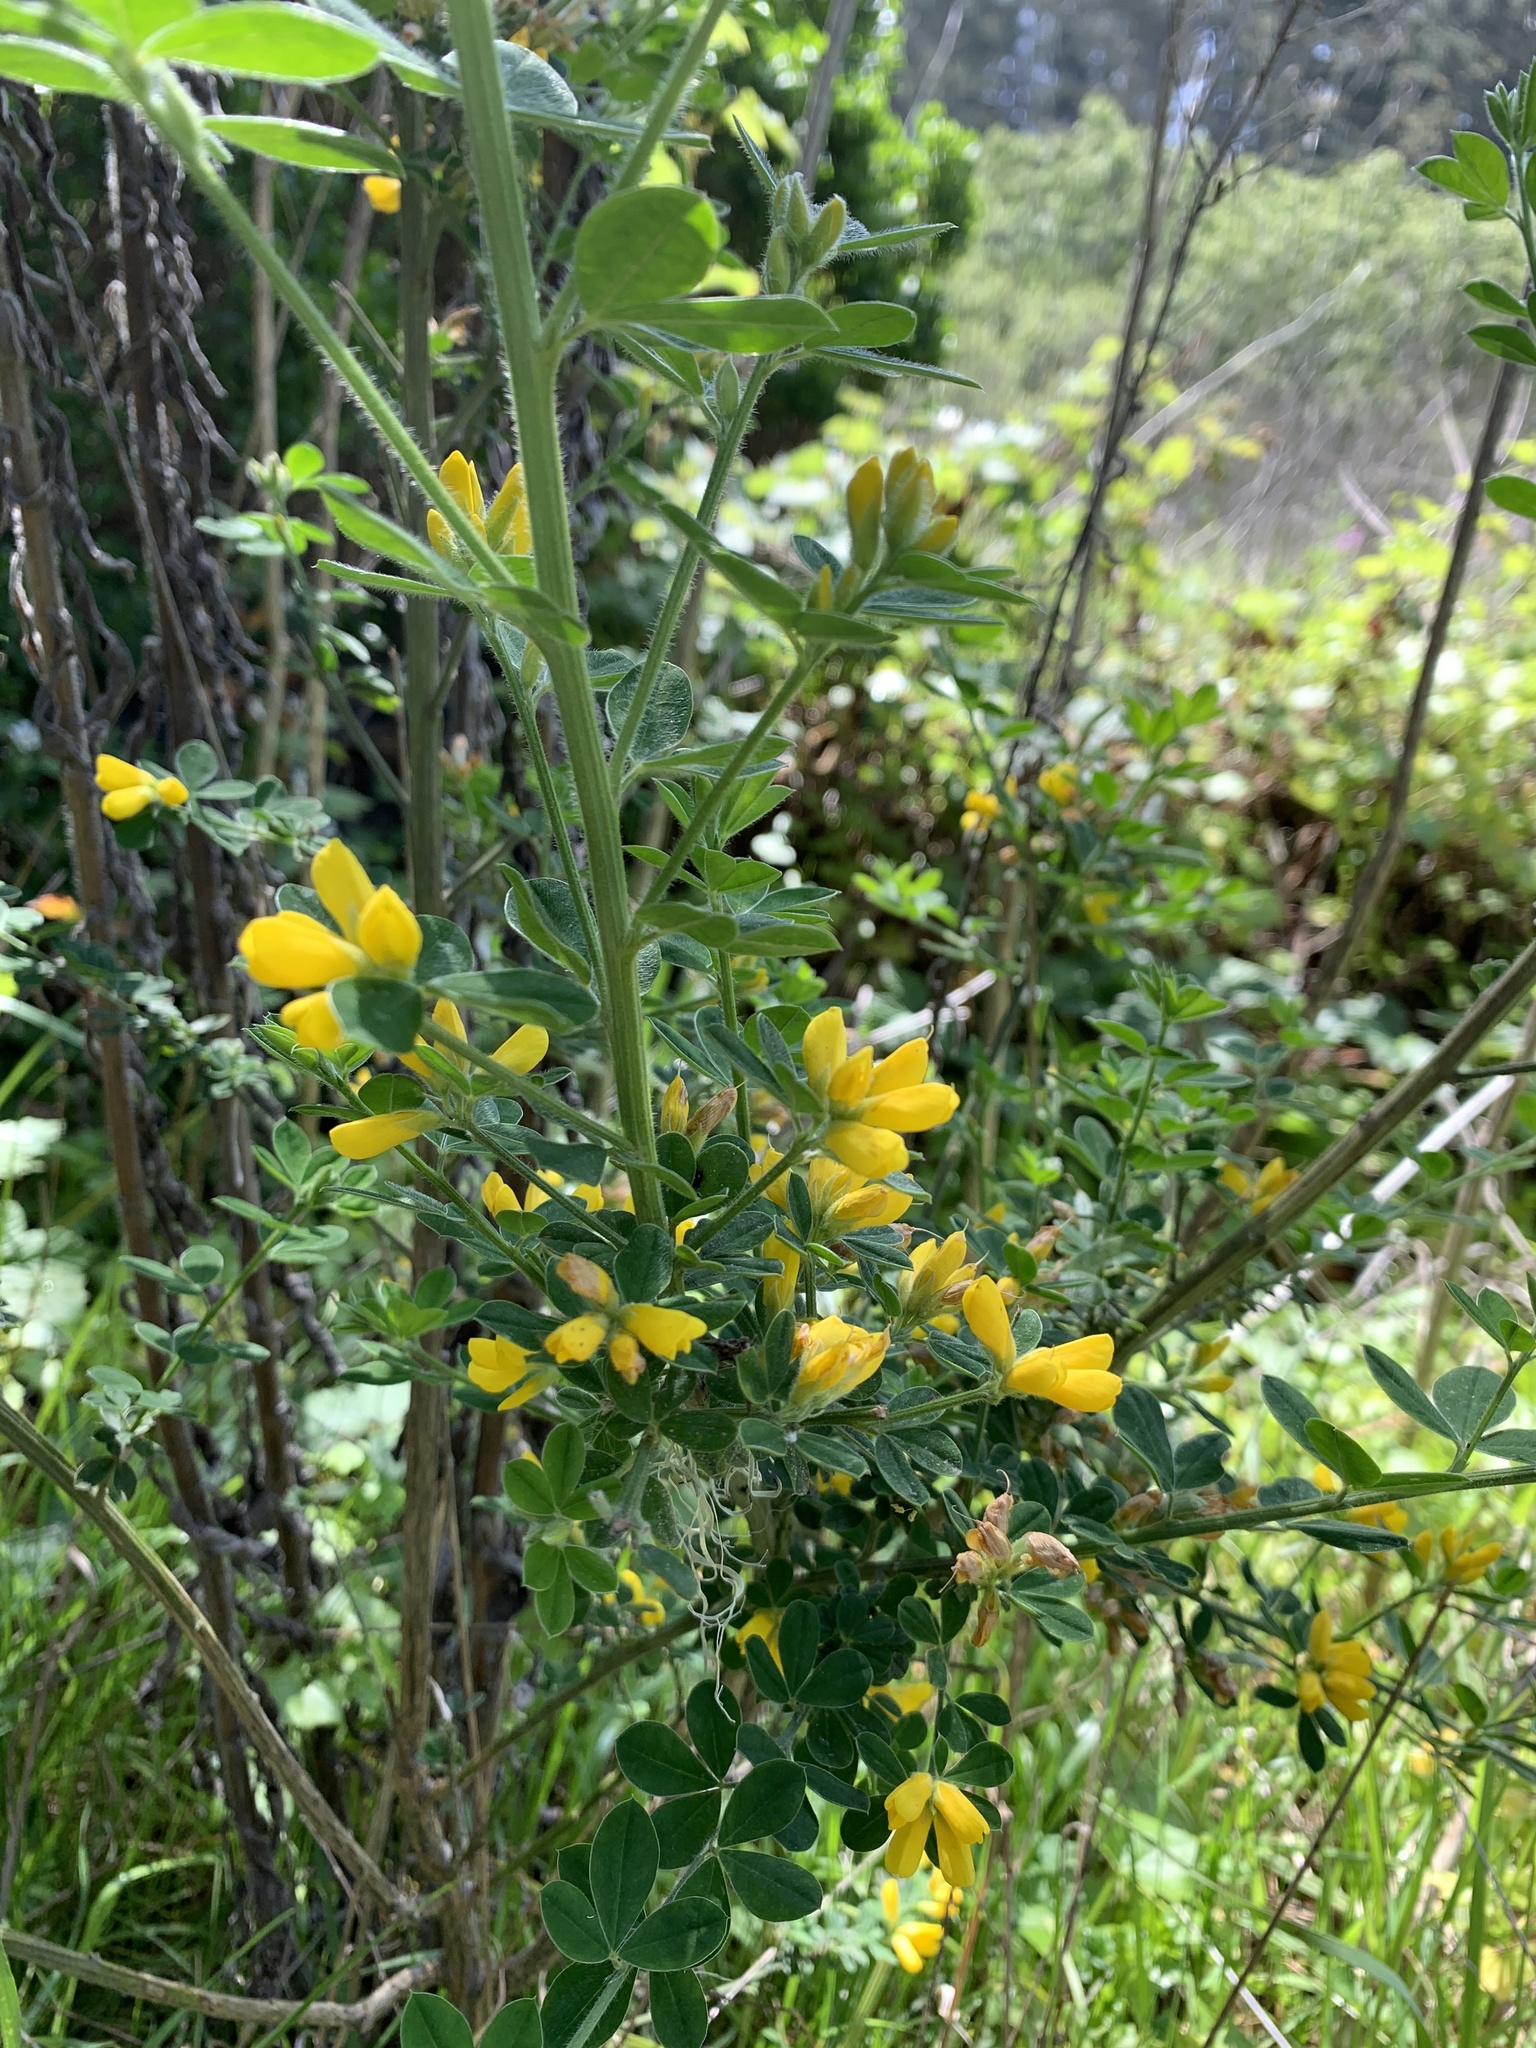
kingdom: Plantae
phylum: Tracheophyta
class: Magnoliopsida
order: Fabales
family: Fabaceae
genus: Genista
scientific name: Genista monspessulana
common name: Montpellier broom
